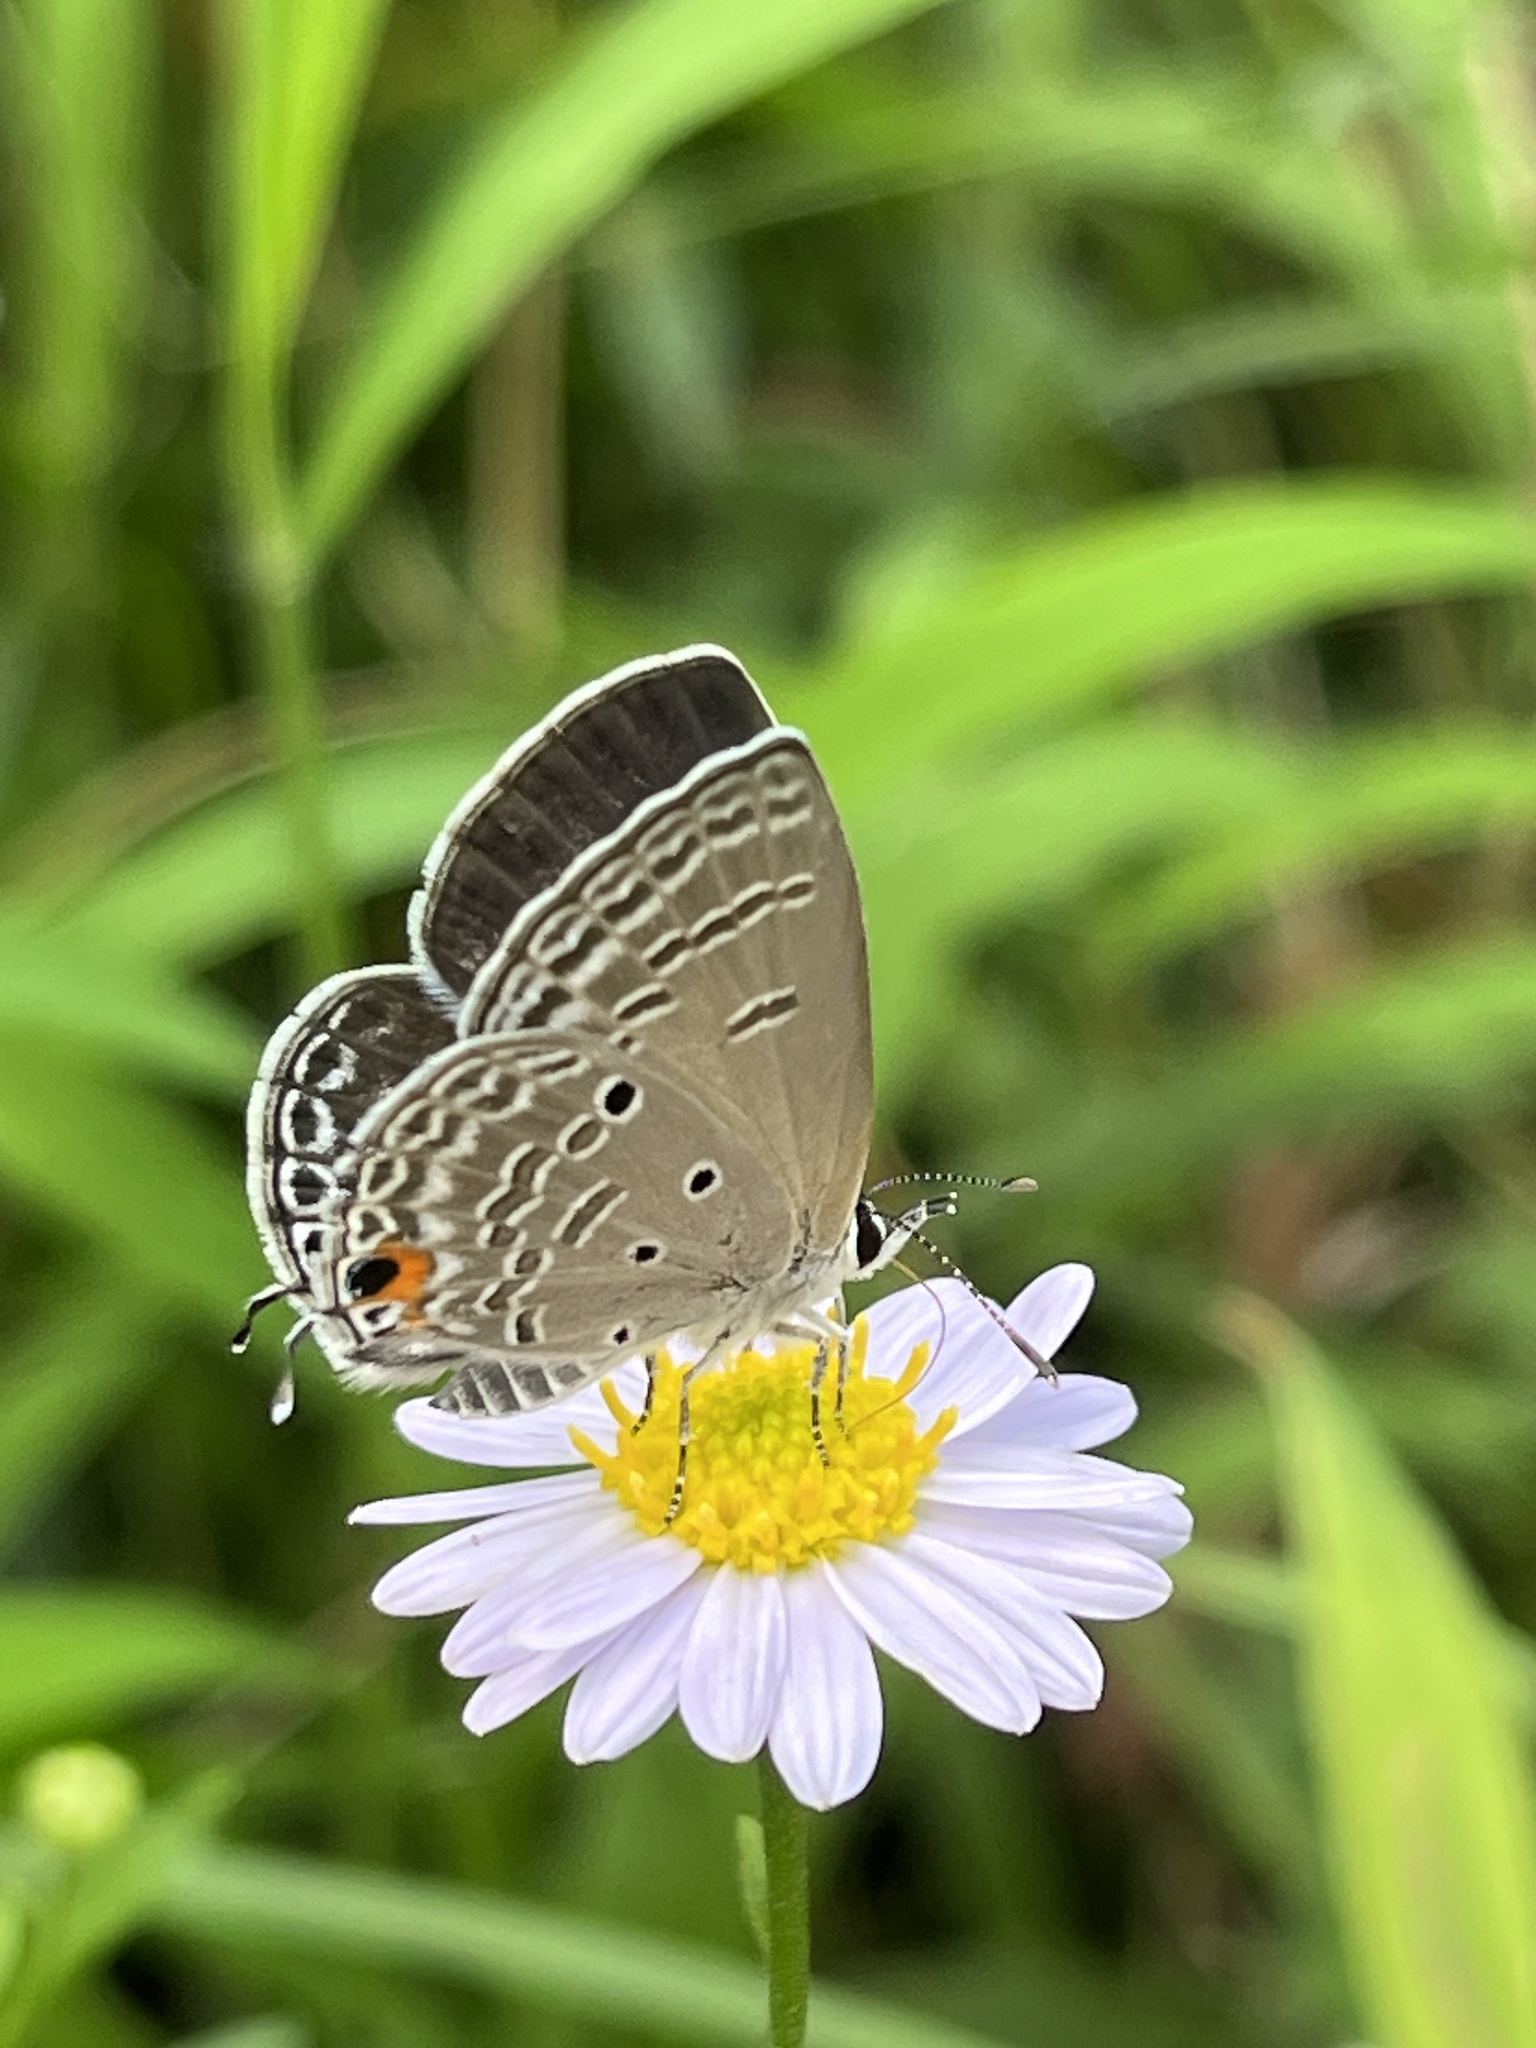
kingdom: Animalia
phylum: Arthropoda
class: Insecta
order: Lepidoptera
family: Lycaenidae
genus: Luthrodes
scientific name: Luthrodes pandava
